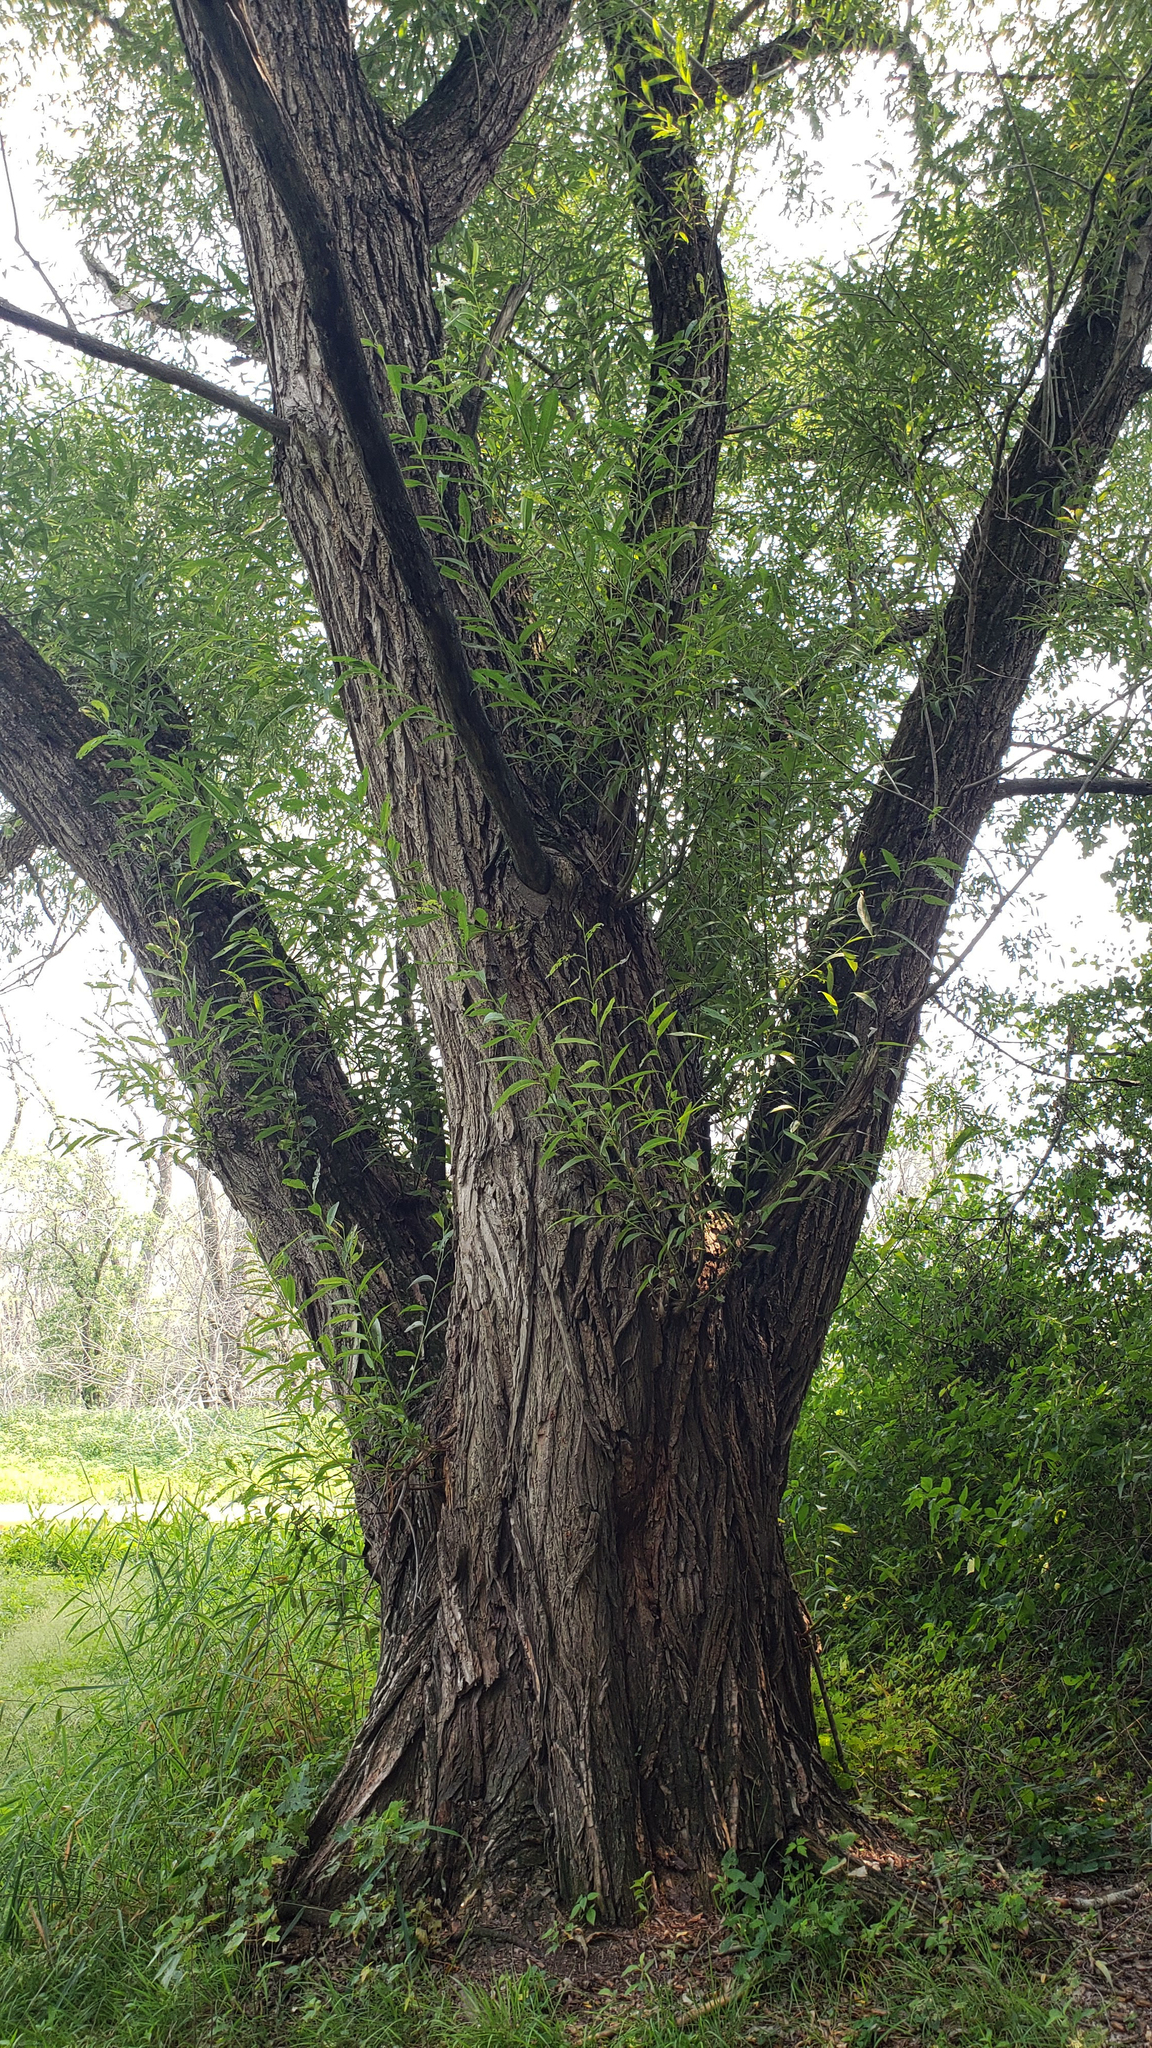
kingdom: Plantae
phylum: Tracheophyta
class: Magnoliopsida
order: Malpighiales
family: Salicaceae
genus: Salix
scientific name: Salix nigra
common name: Black willow
